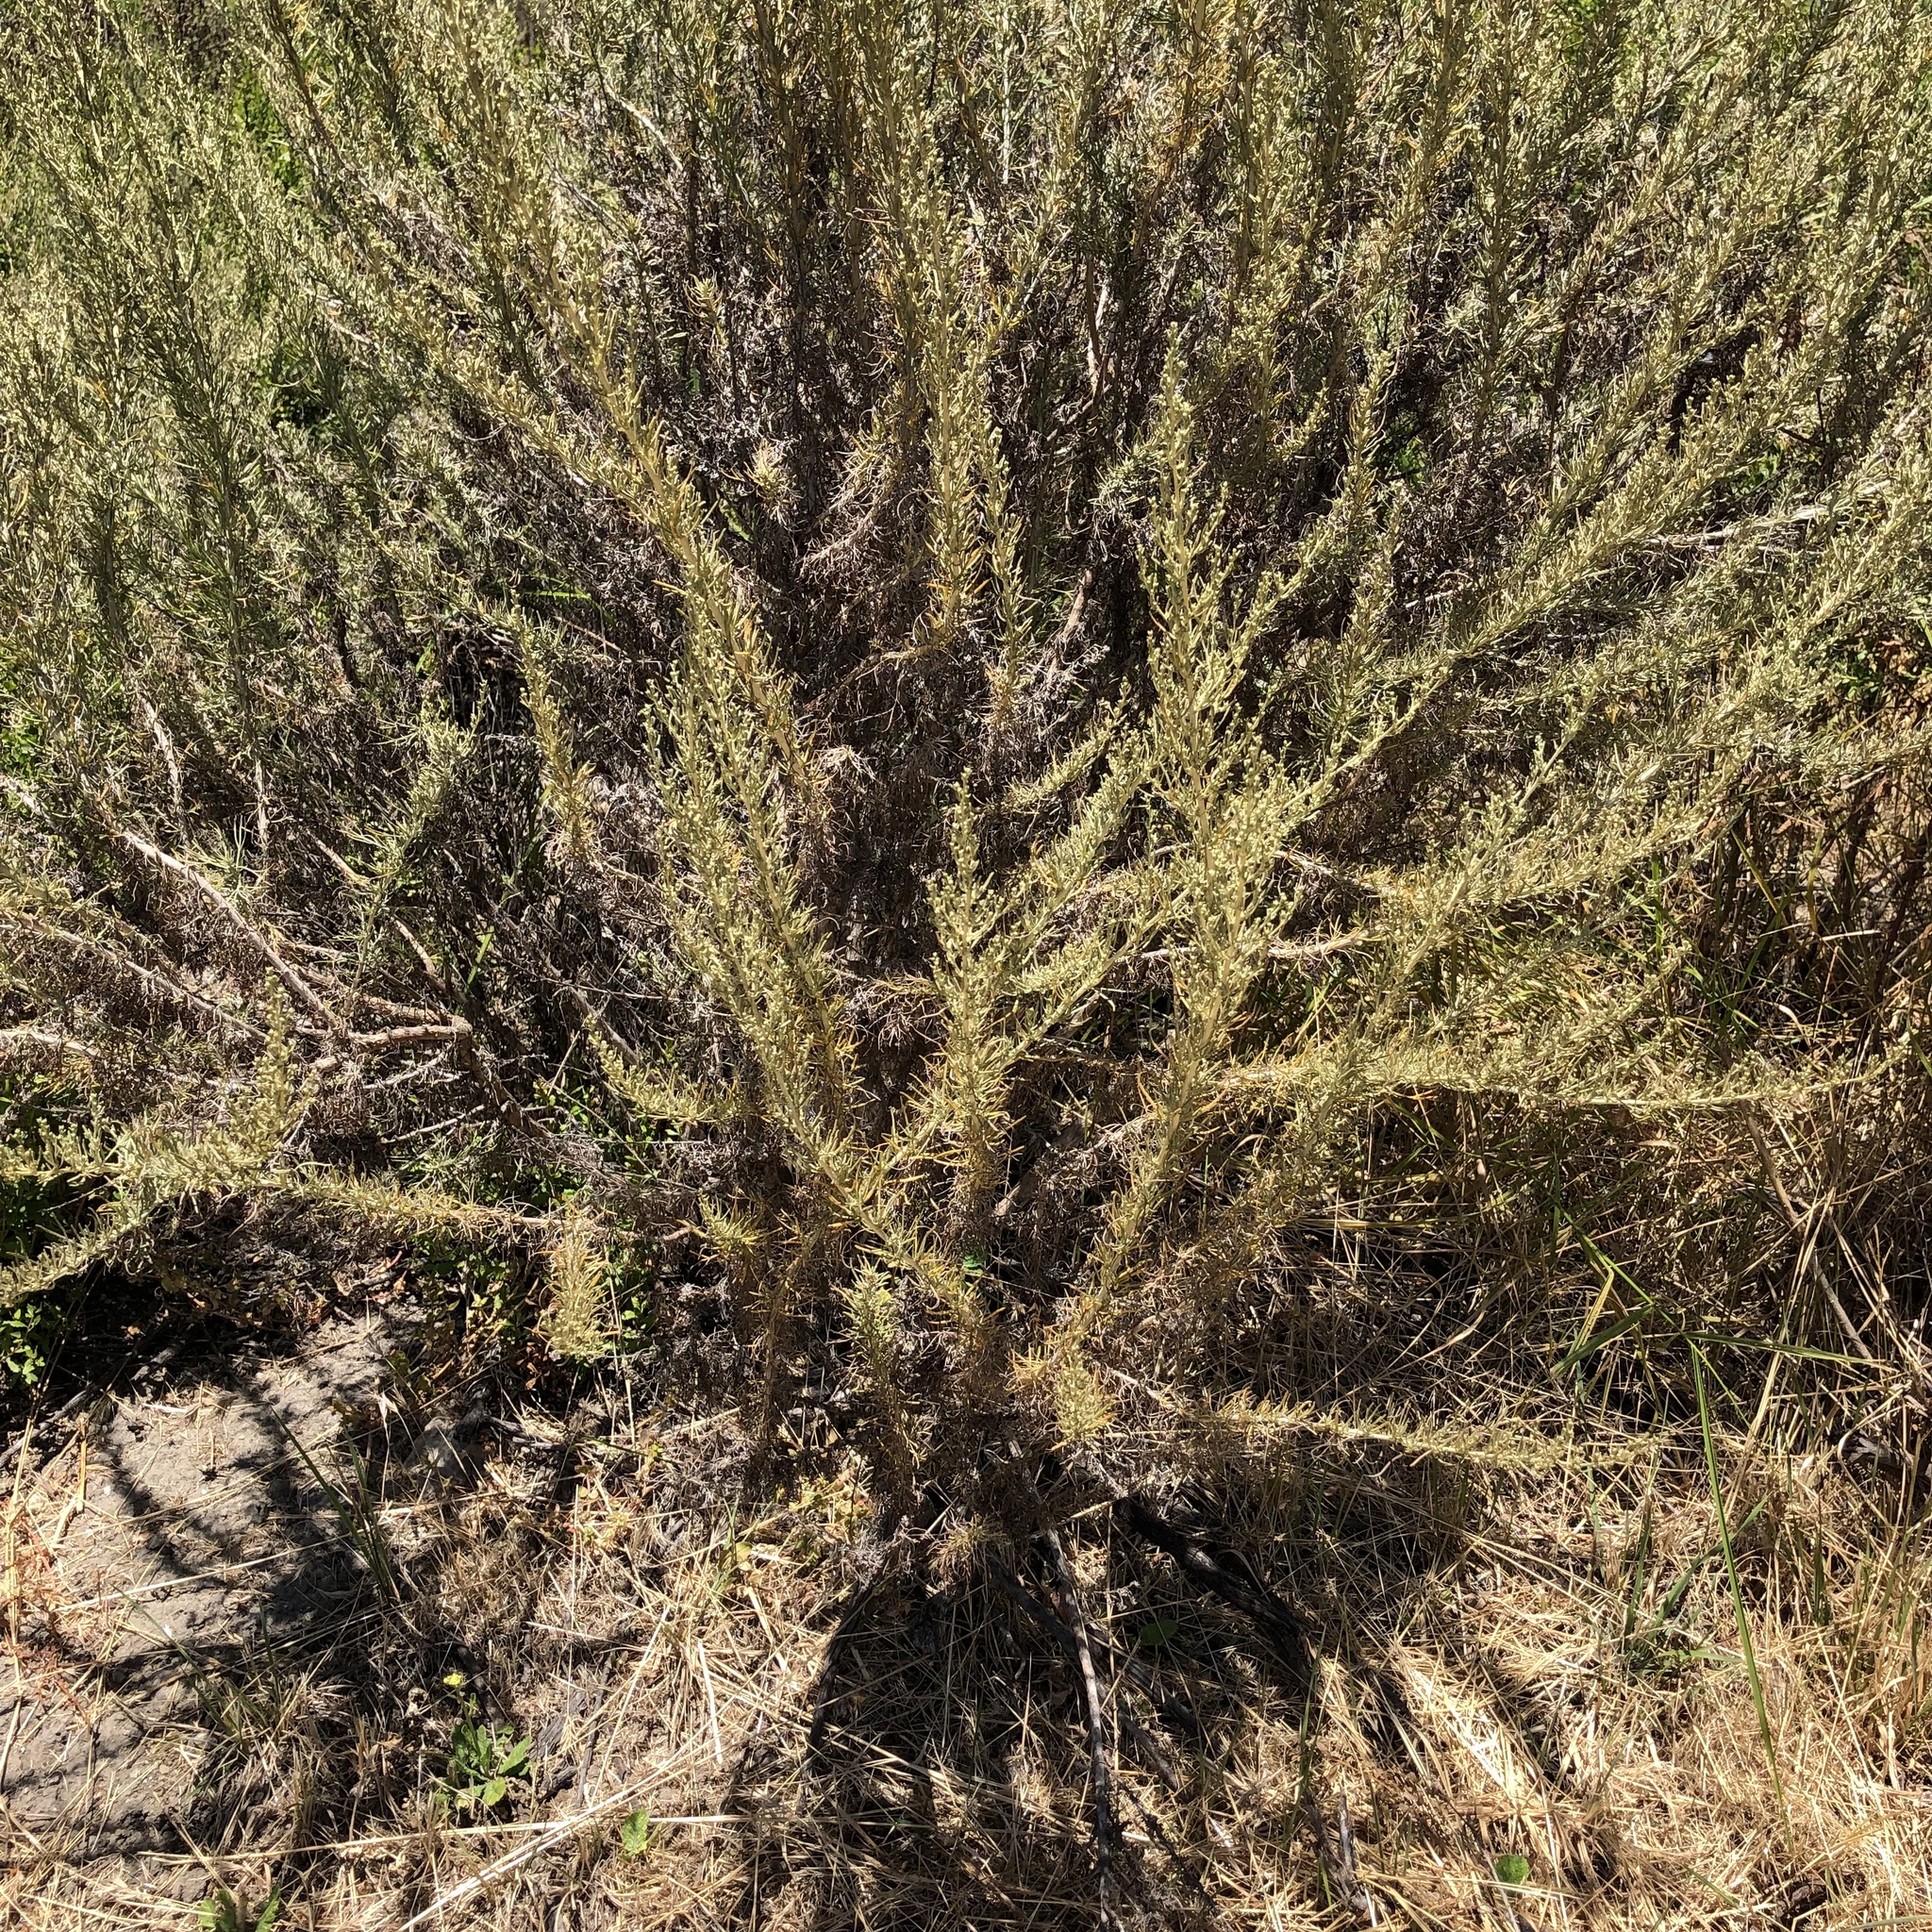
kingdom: Plantae
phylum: Tracheophyta
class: Magnoliopsida
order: Asterales
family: Asteraceae
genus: Artemisia
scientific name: Artemisia californica
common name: California sagebrush
